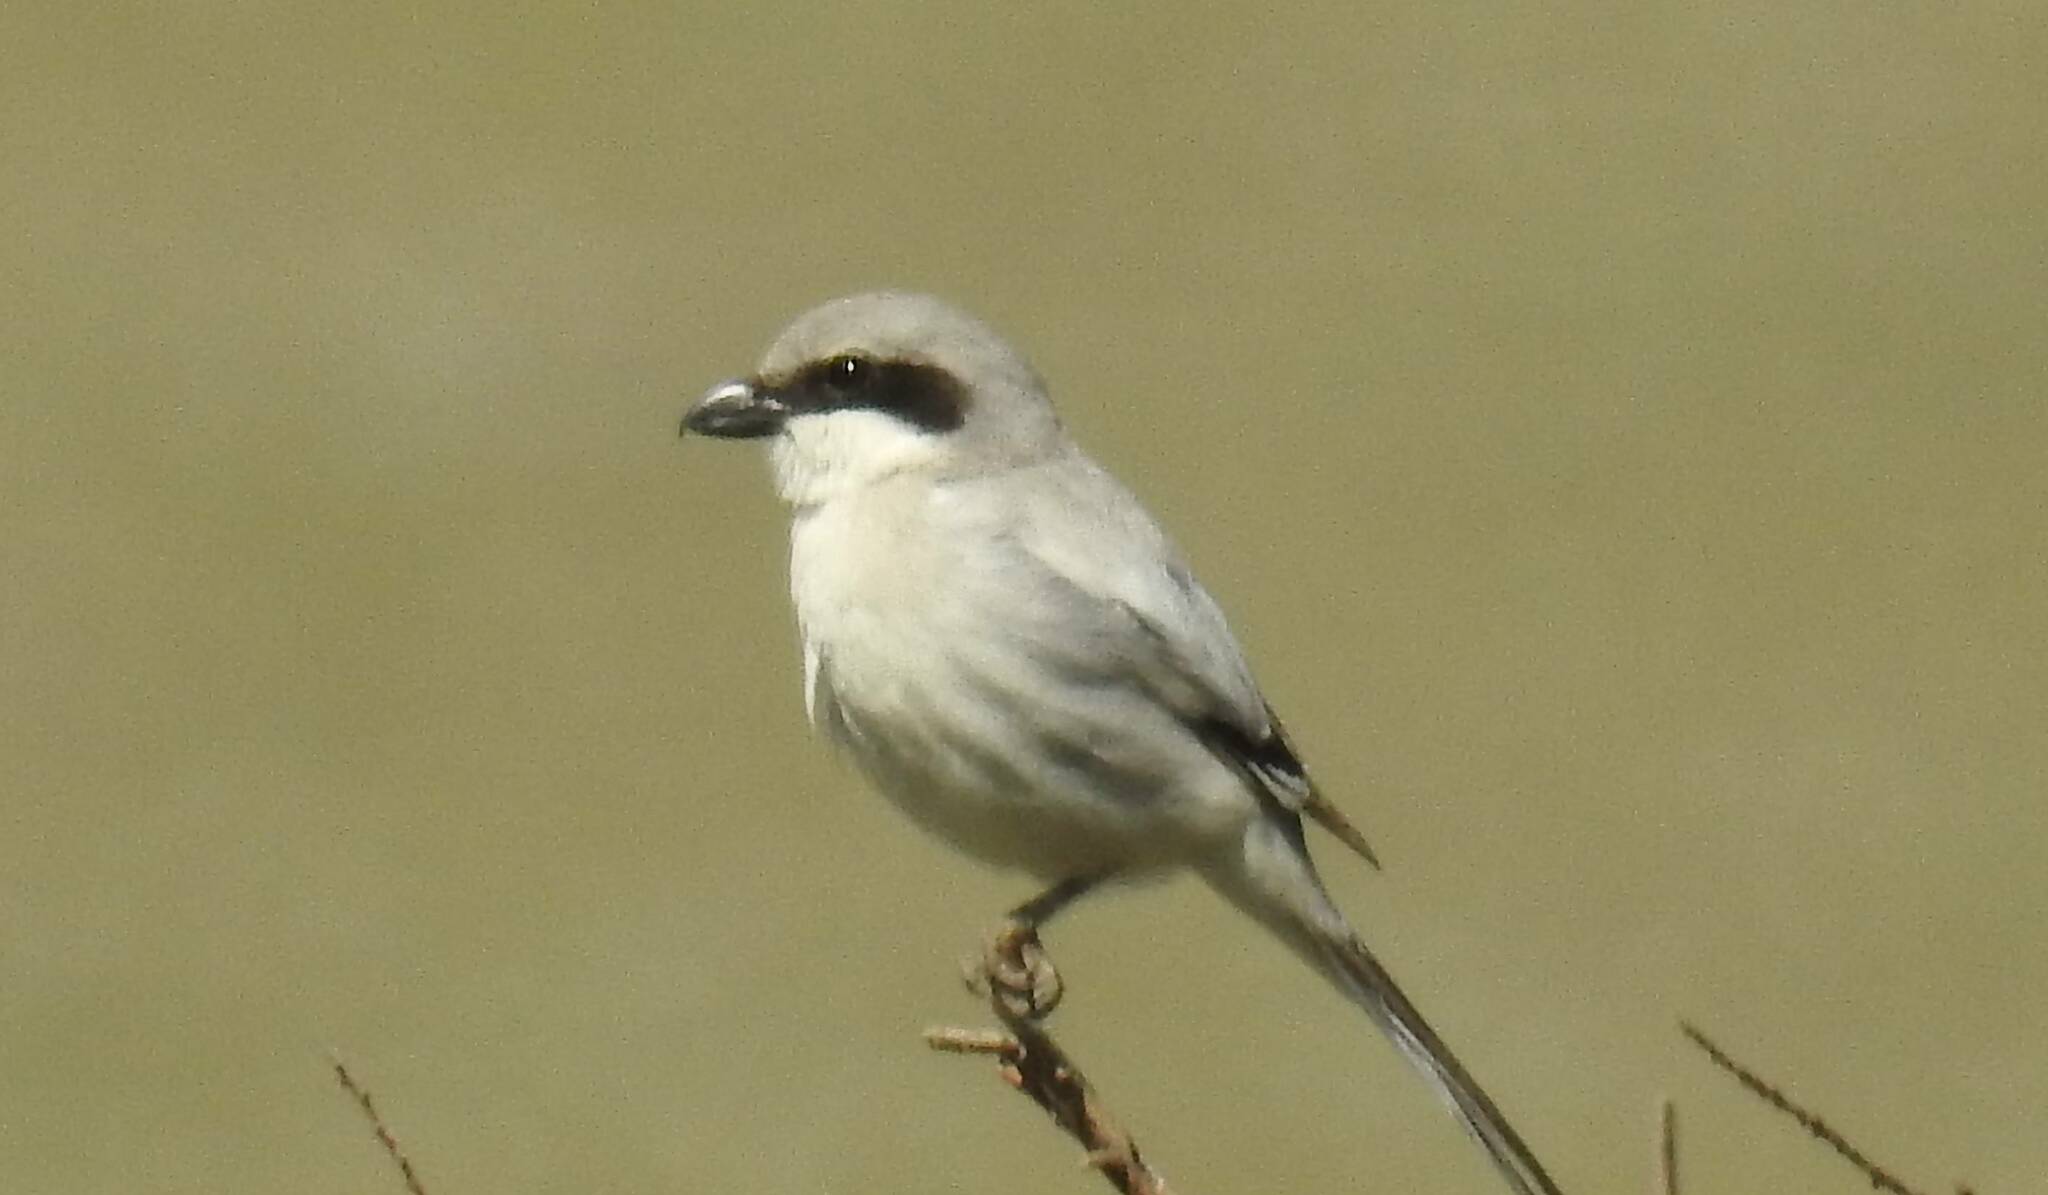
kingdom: Animalia
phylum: Chordata
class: Aves
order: Passeriformes
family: Laniidae
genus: Lanius
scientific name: Lanius excubitor
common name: Great grey shrike
